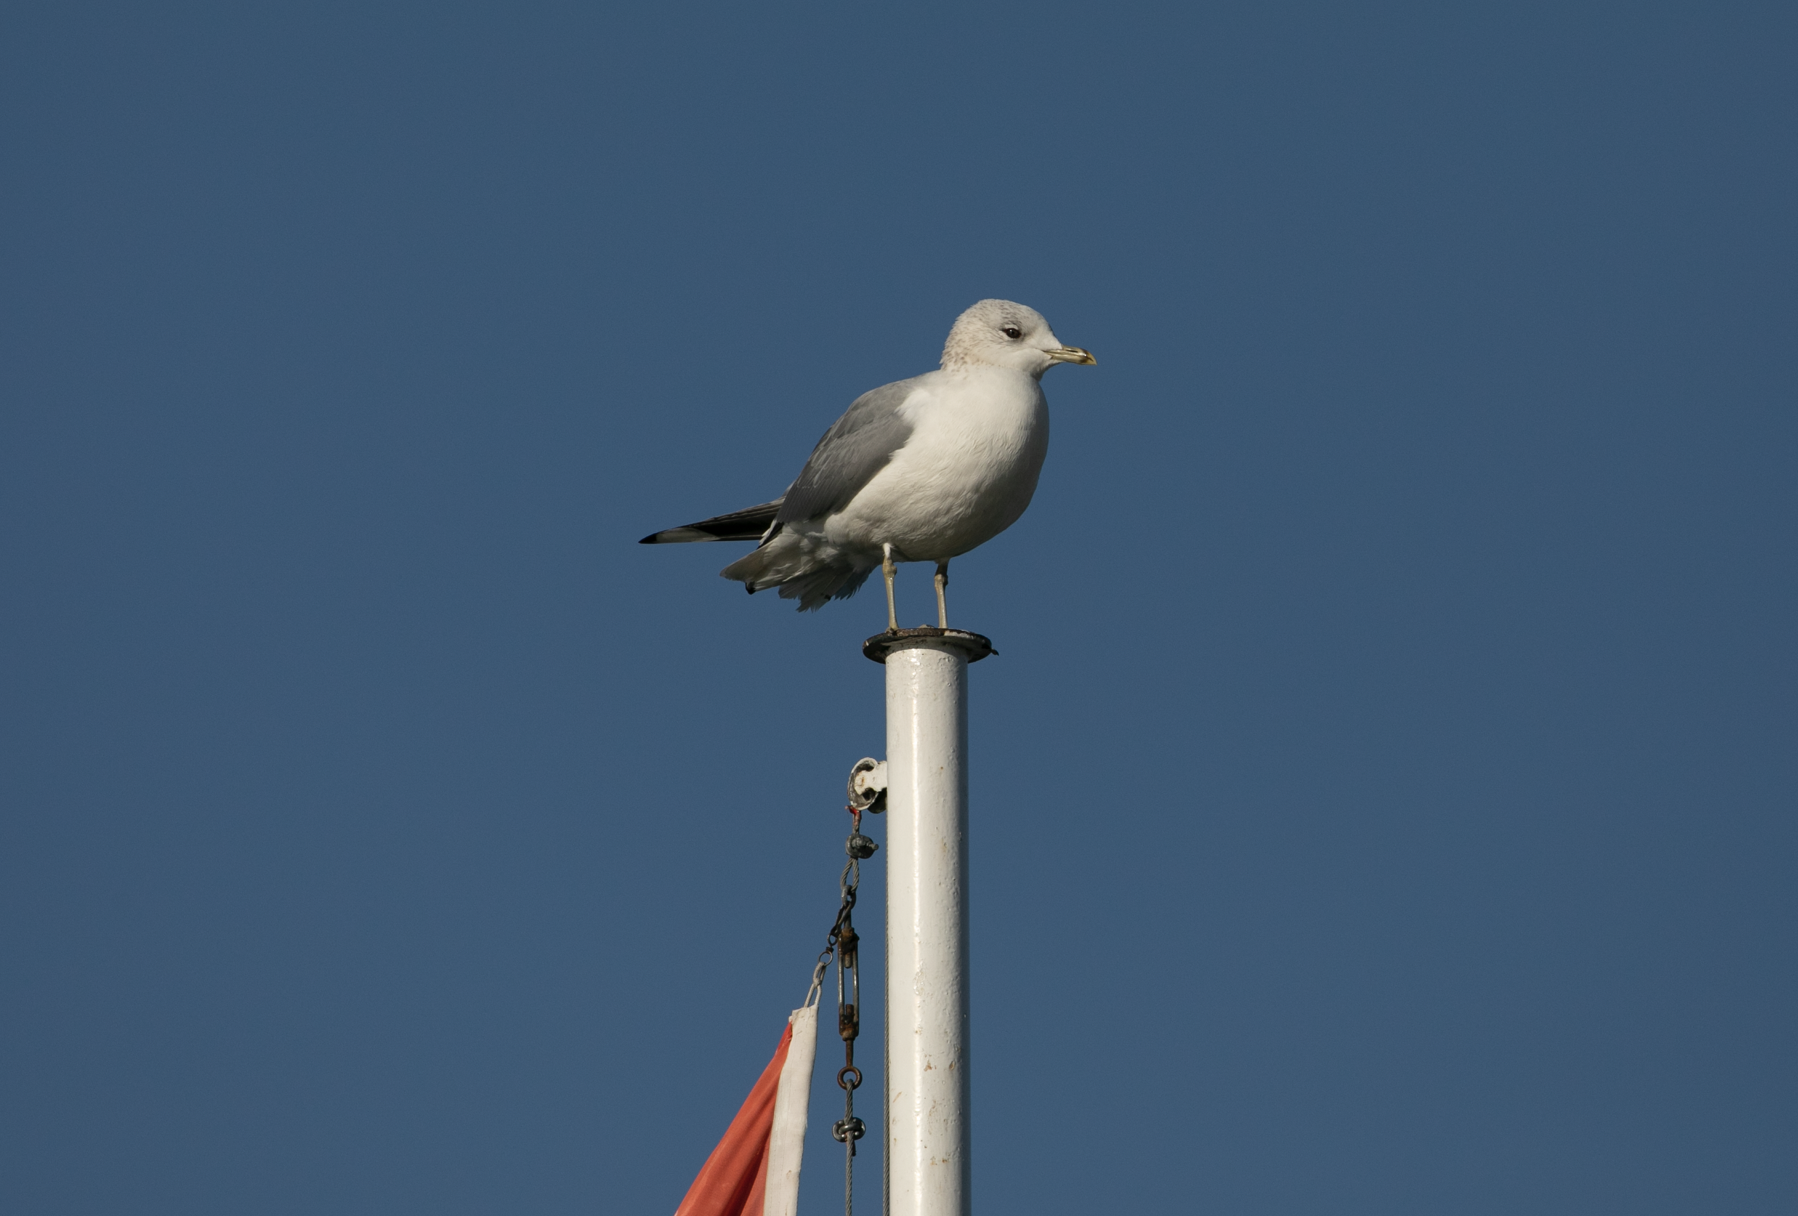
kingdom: Animalia
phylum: Chordata
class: Aves
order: Charadriiformes
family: Laridae
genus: Larus
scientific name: Larus canus
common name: Mew gull
